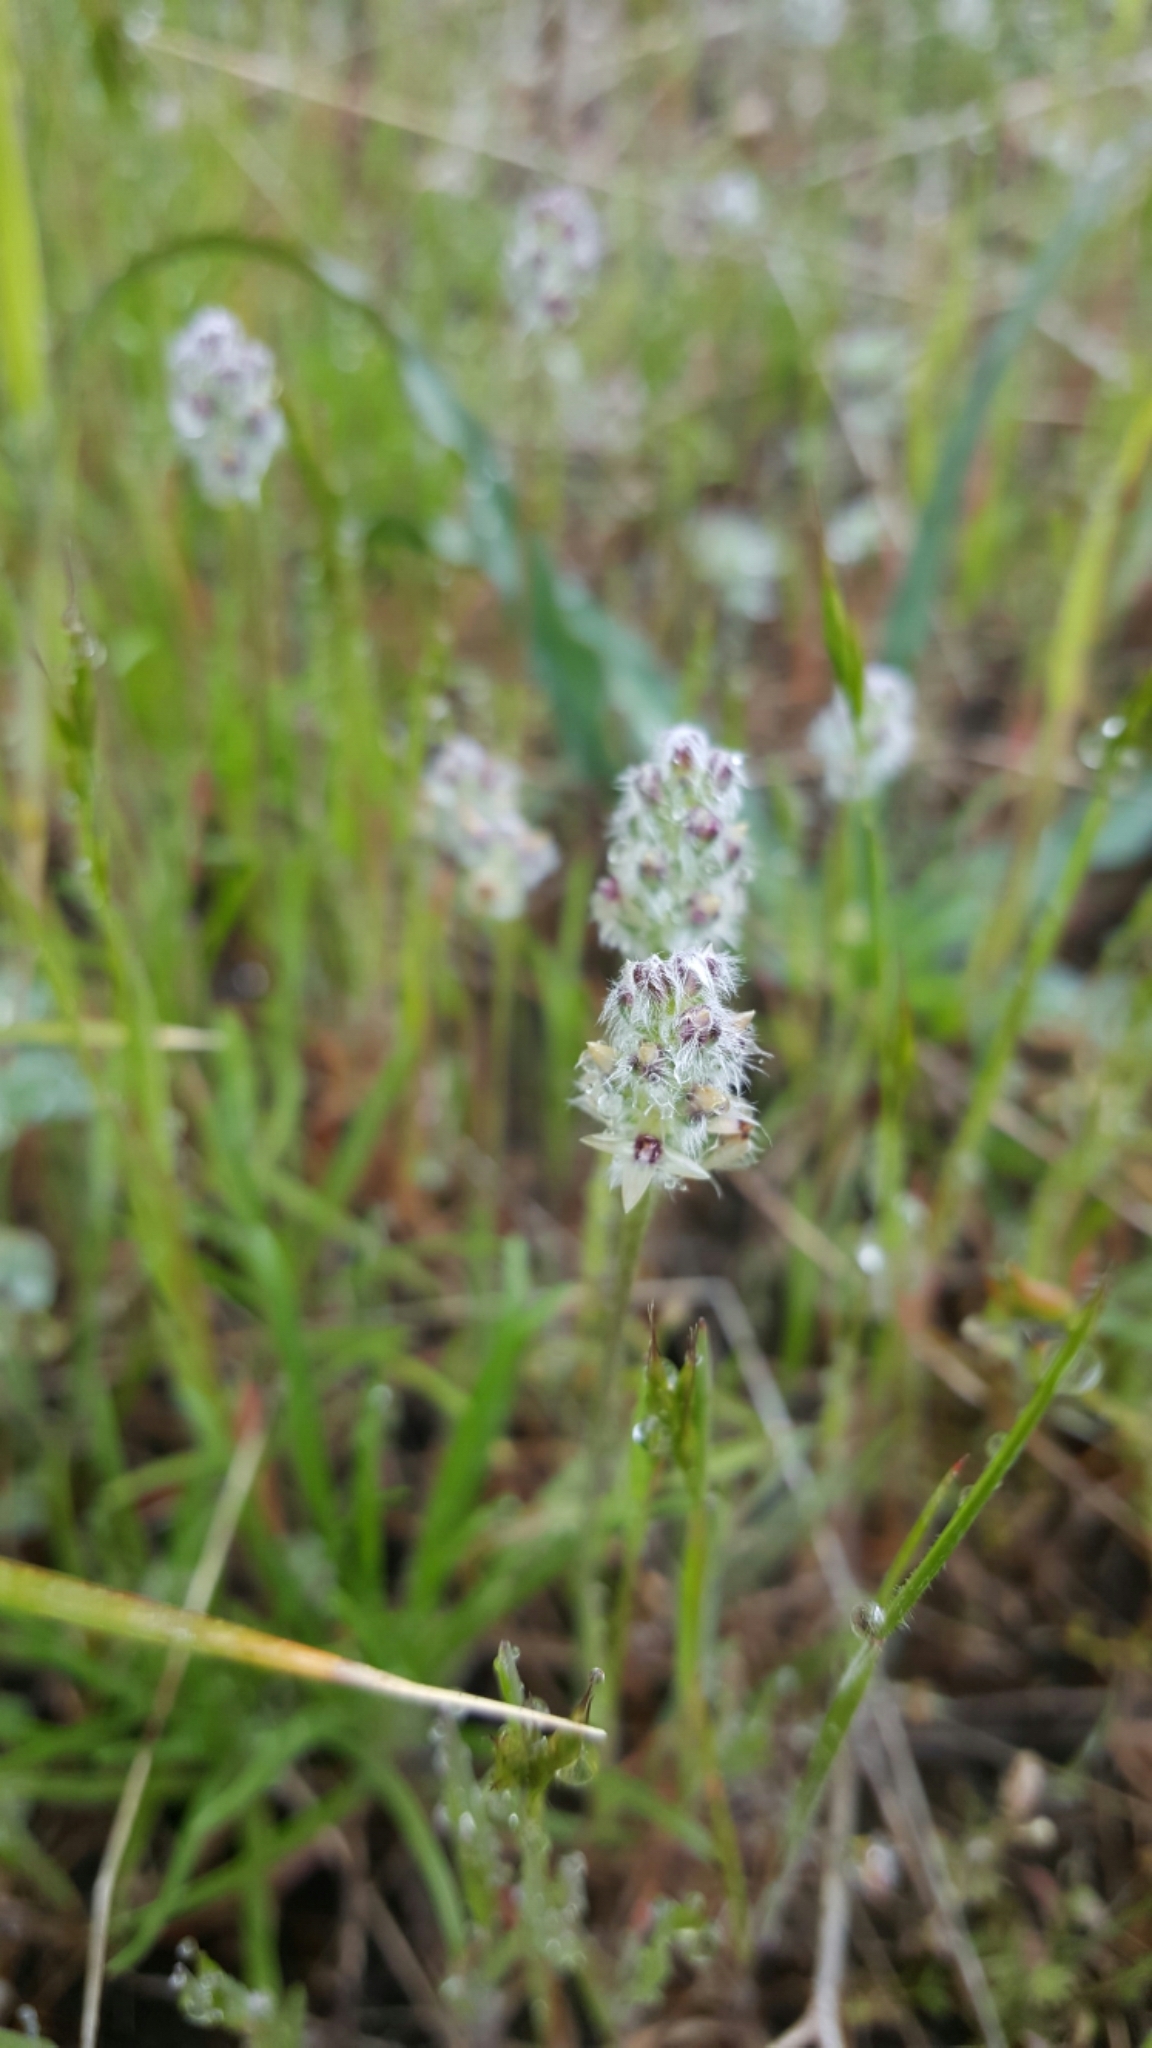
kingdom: Plantae
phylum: Tracheophyta
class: Magnoliopsida
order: Lamiales
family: Plantaginaceae
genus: Plantago
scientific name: Plantago erecta
